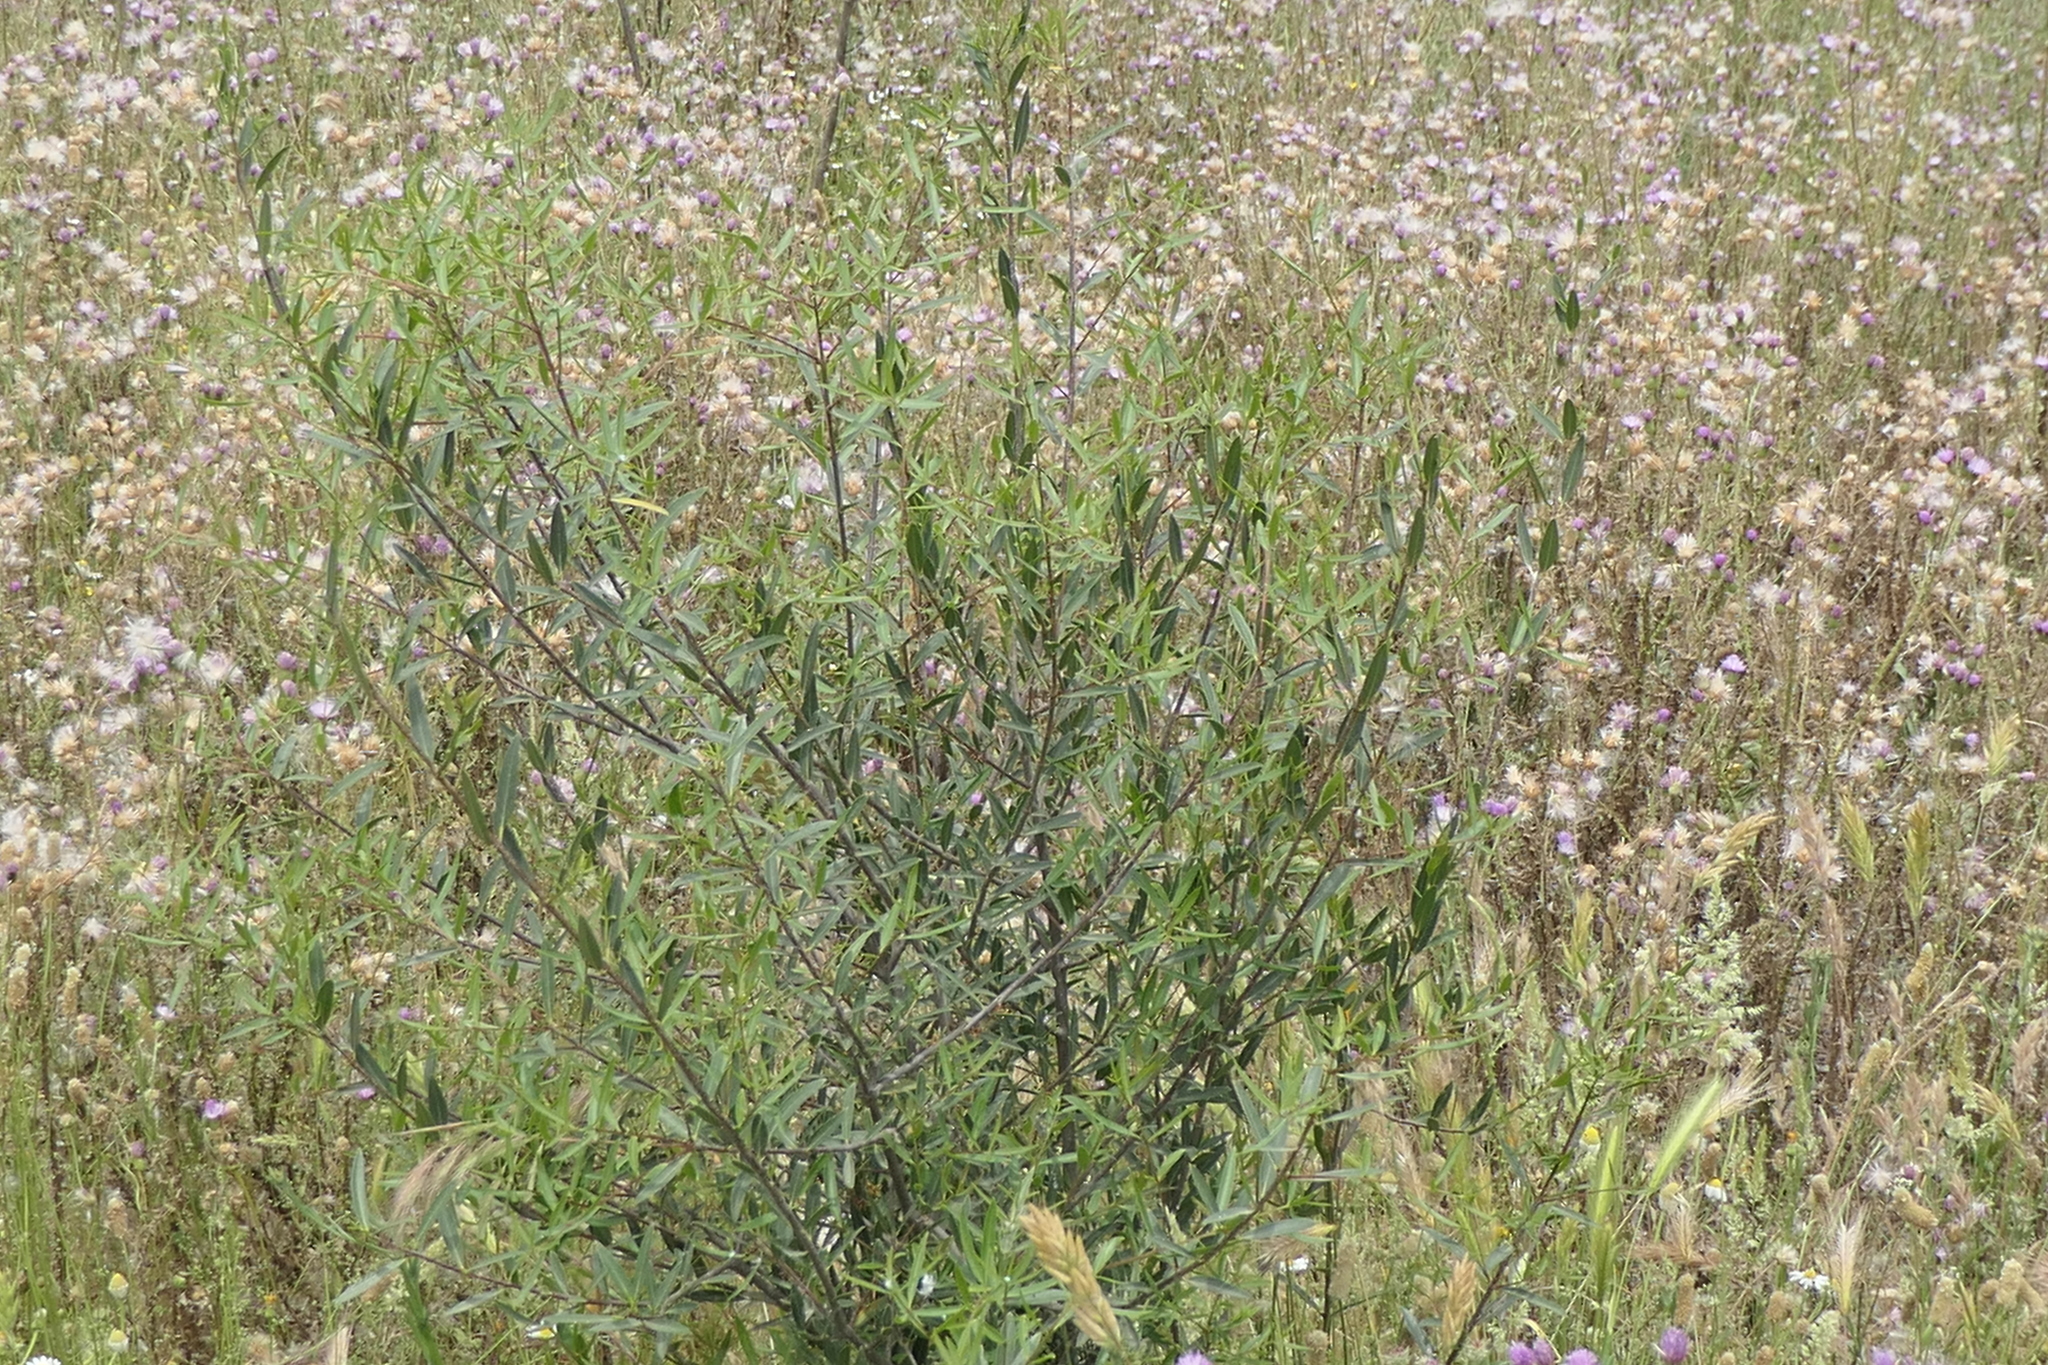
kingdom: Plantae
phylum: Tracheophyta
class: Magnoliopsida
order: Lamiales
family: Oleaceae
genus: Phillyrea
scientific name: Phillyrea angustifolia
